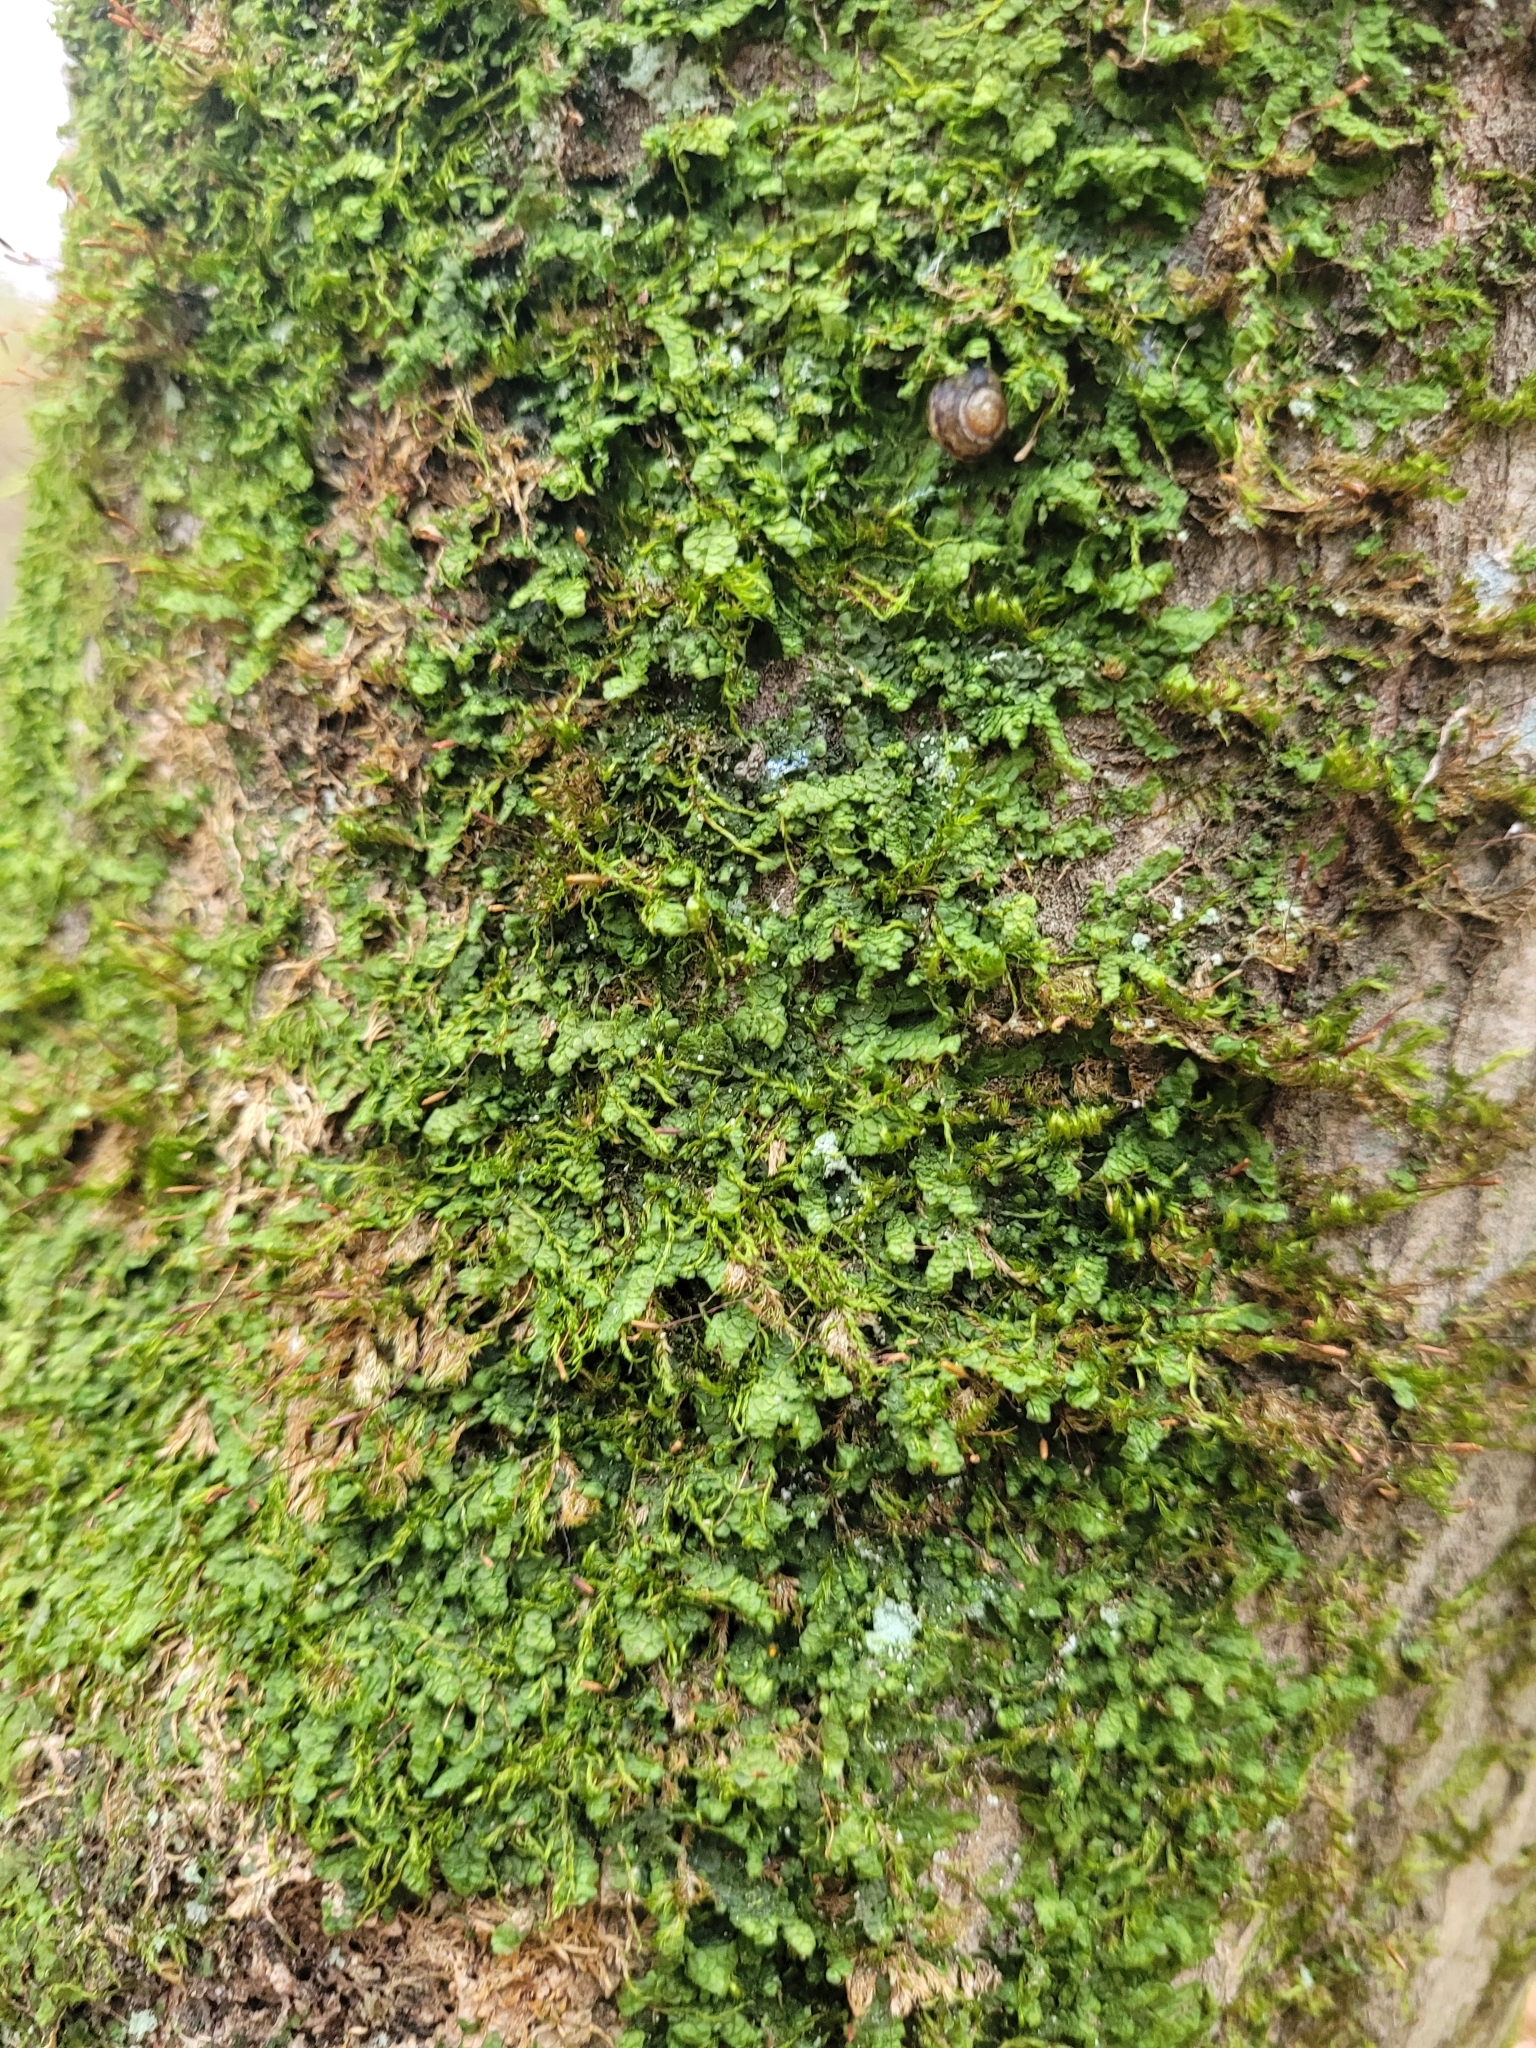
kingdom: Plantae
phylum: Marchantiophyta
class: Jungermanniopsida
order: Porellales
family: Radulaceae
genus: Radula
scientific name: Radula complanata
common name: Flat-leaved scalewort
